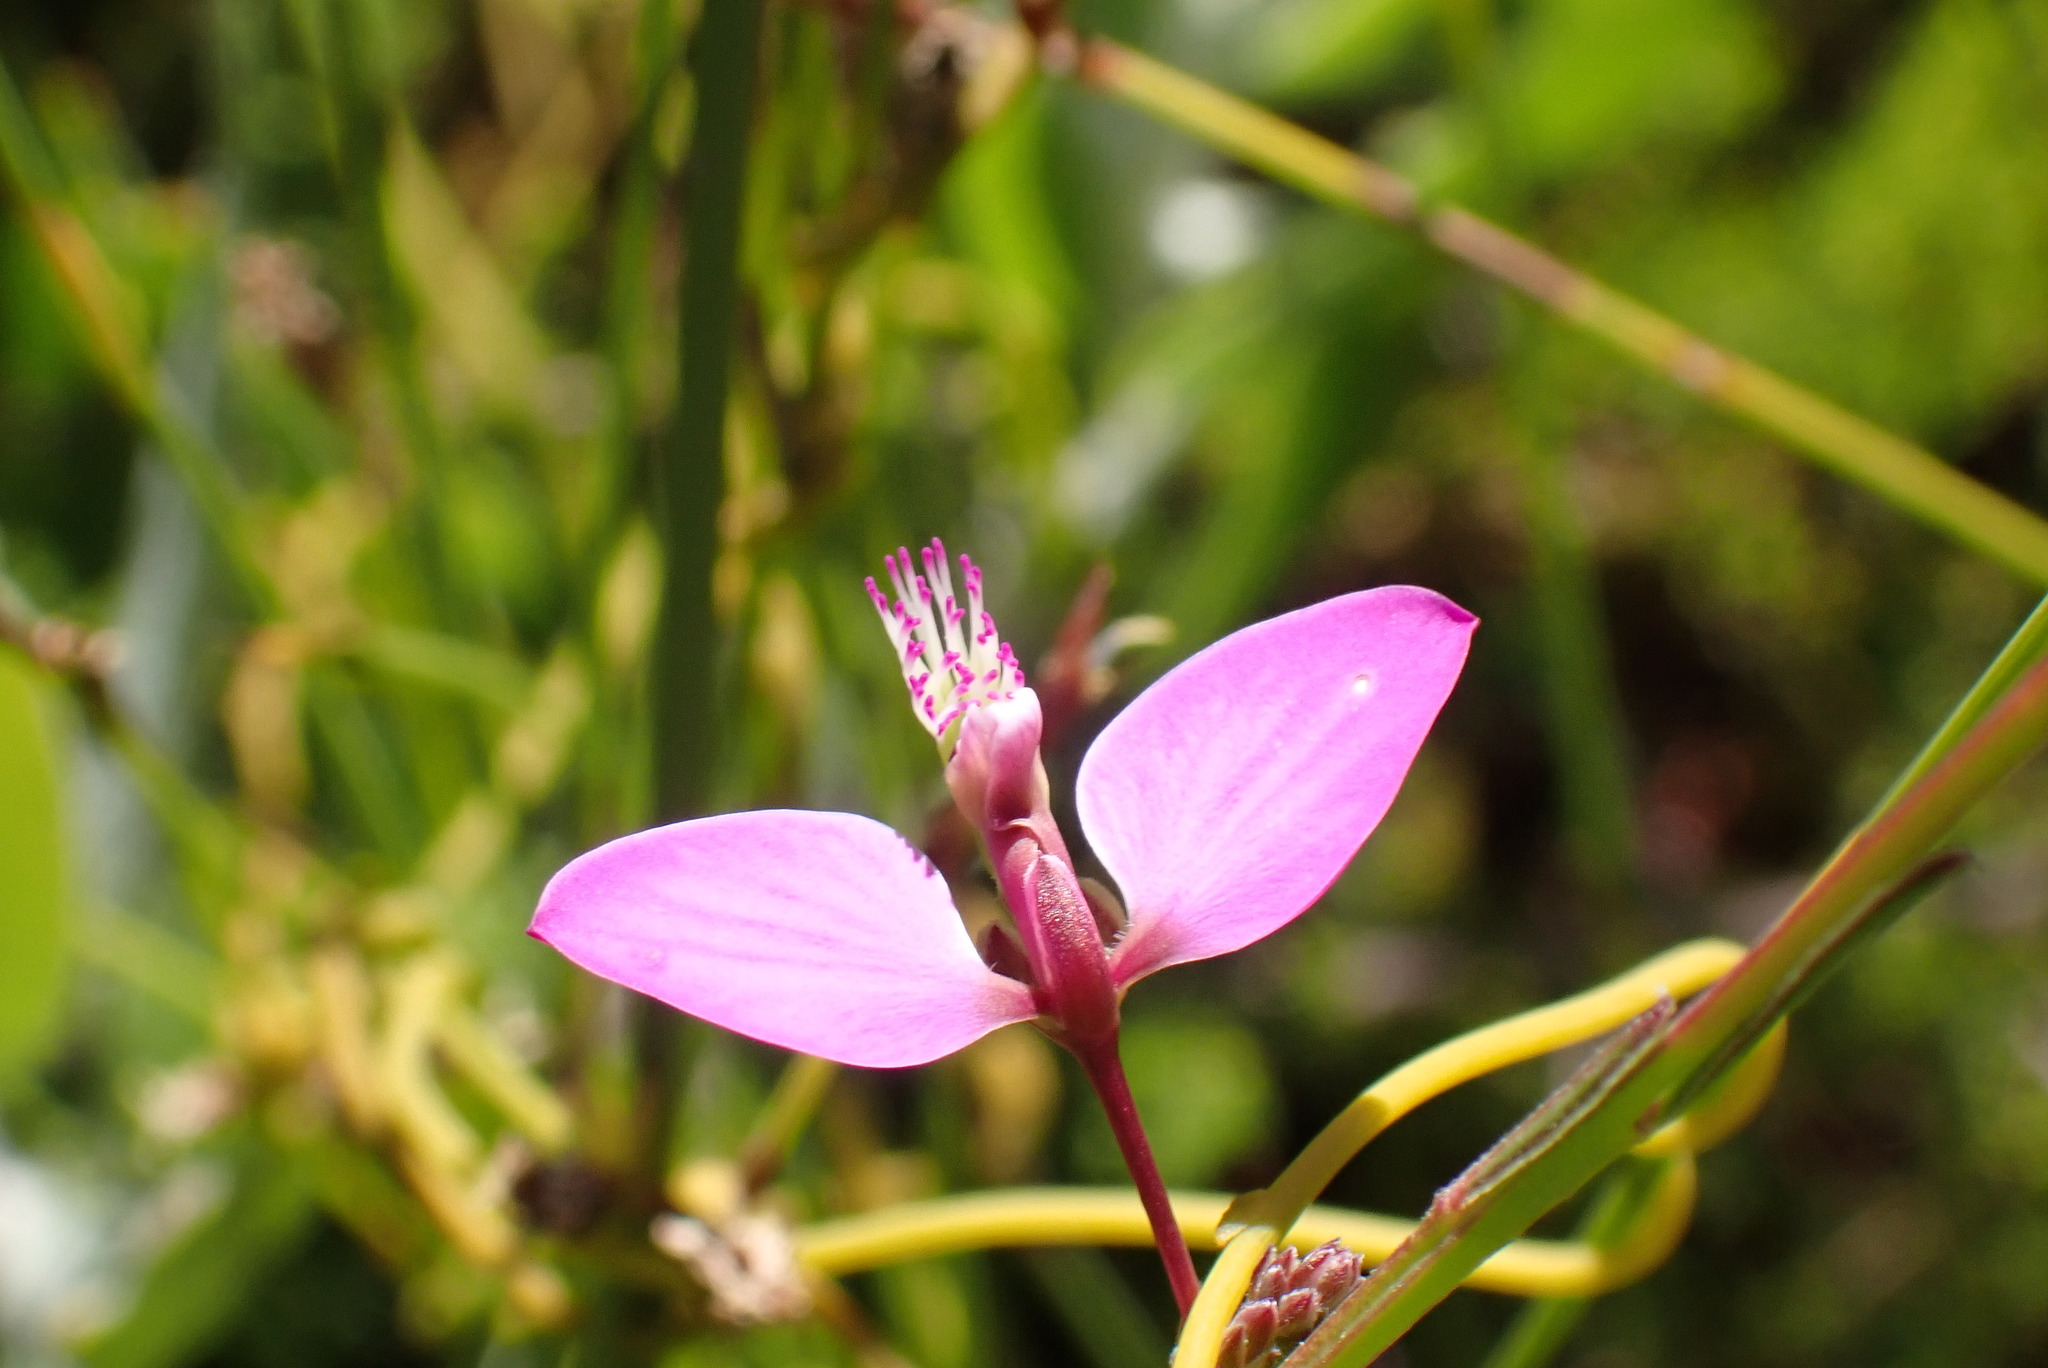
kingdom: Plantae
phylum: Tracheophyta
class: Magnoliopsida
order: Fabales
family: Polygalaceae
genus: Polygala
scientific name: Polygala refracta
